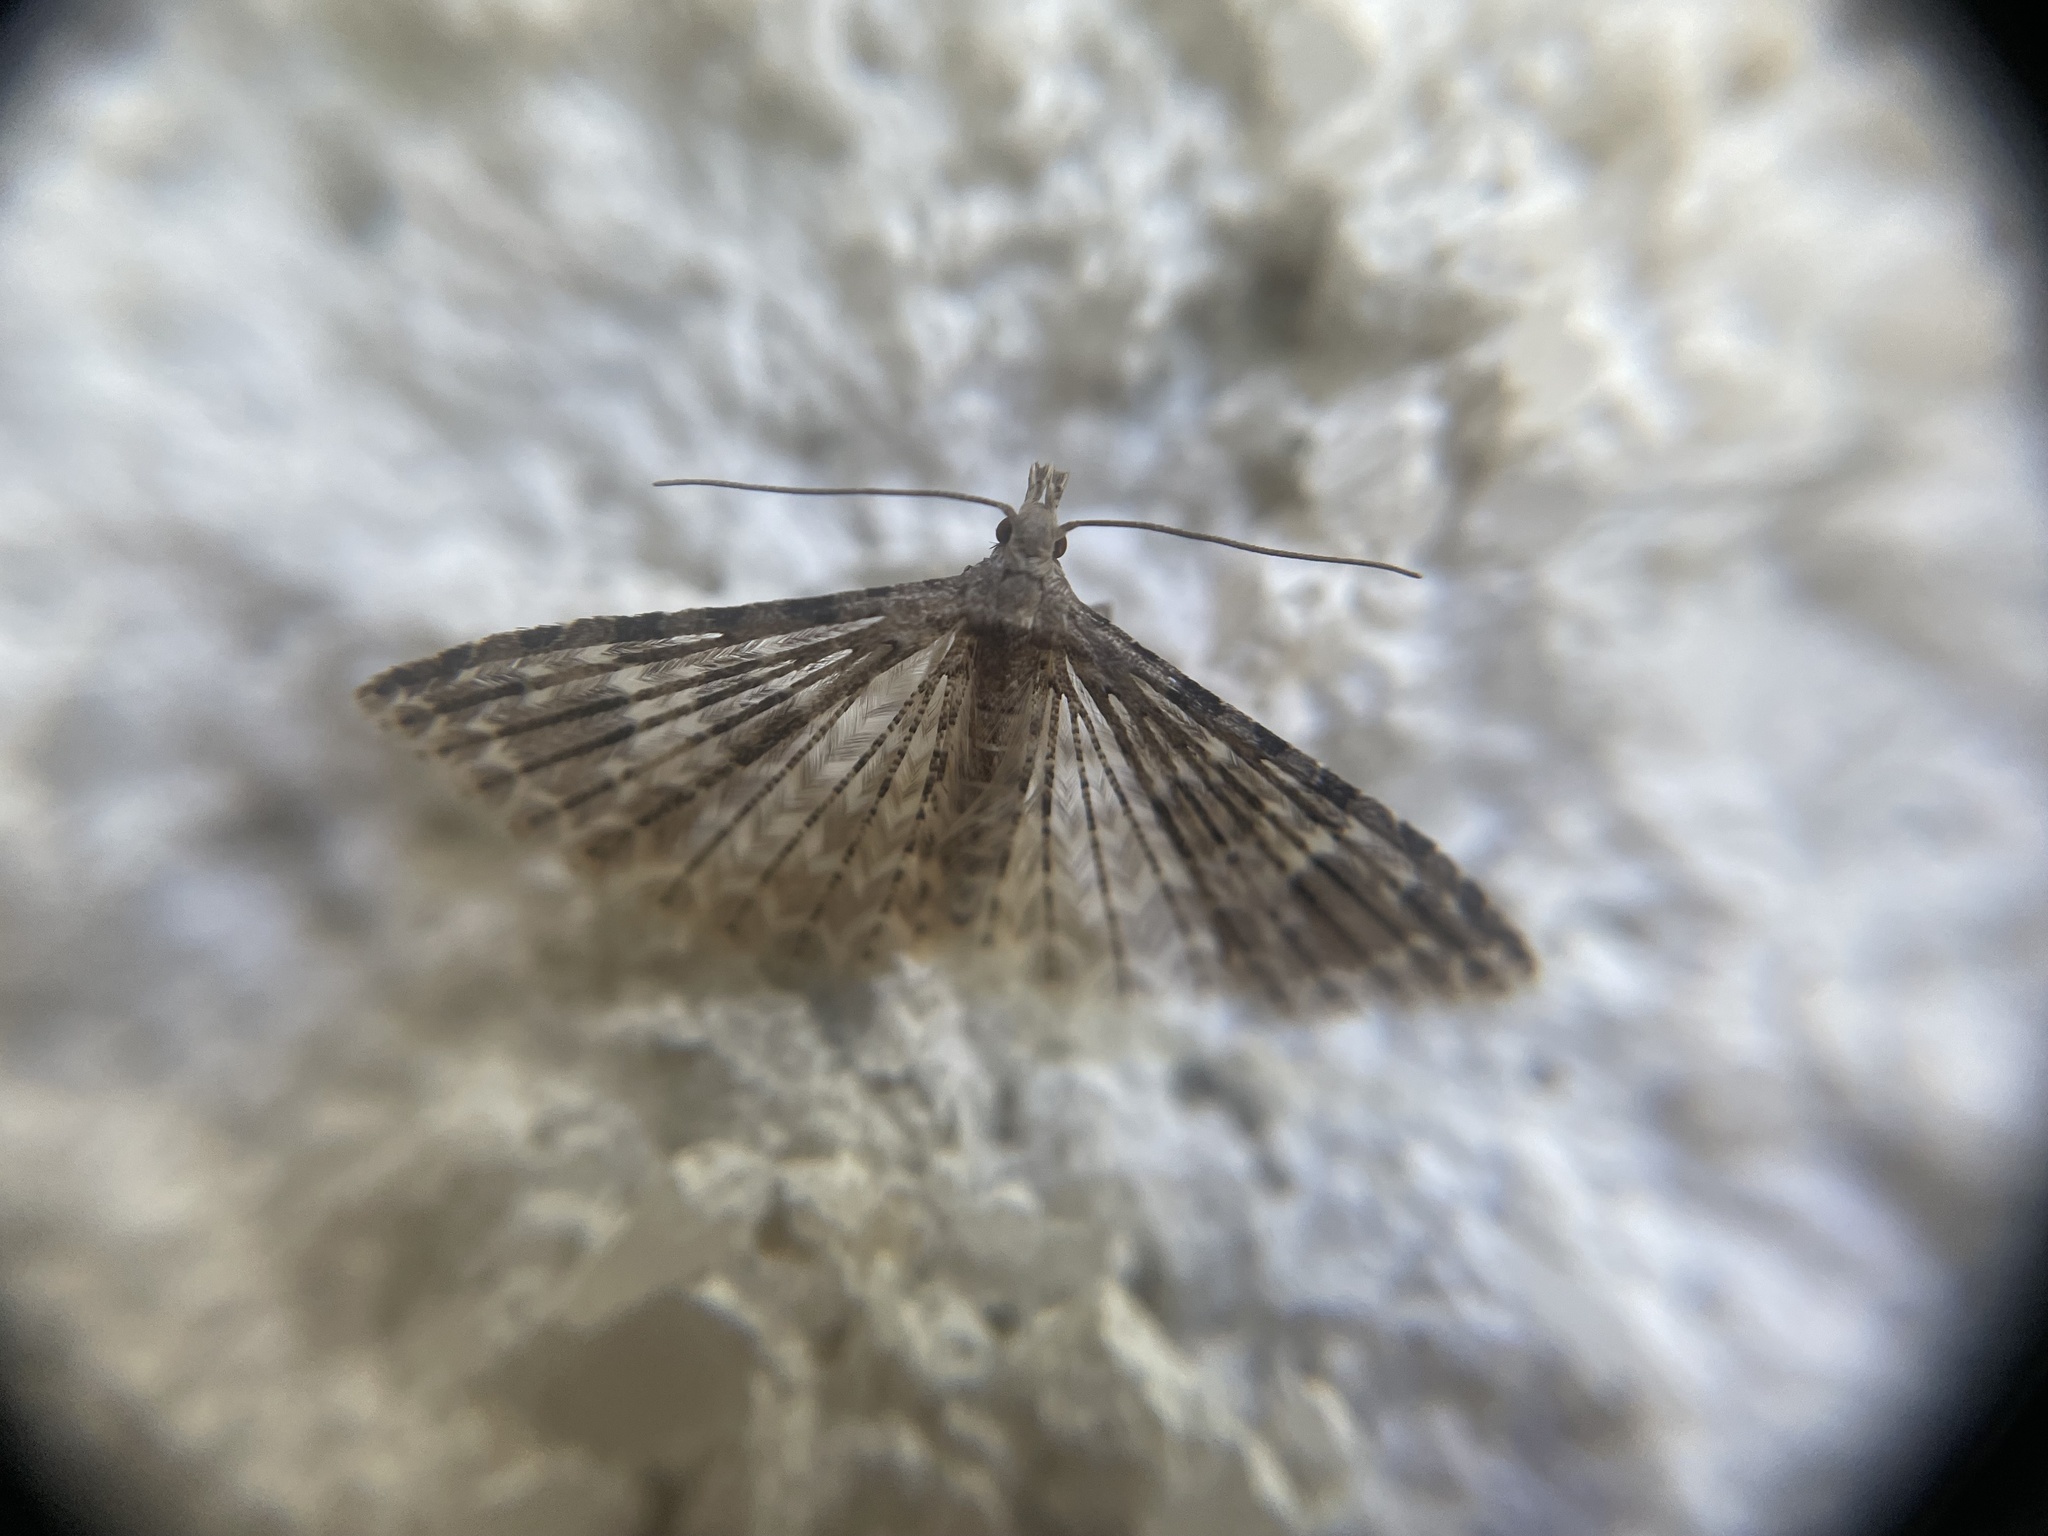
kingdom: Animalia
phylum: Arthropoda
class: Insecta
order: Lepidoptera
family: Alucitidae
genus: Alucita
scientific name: Alucita
